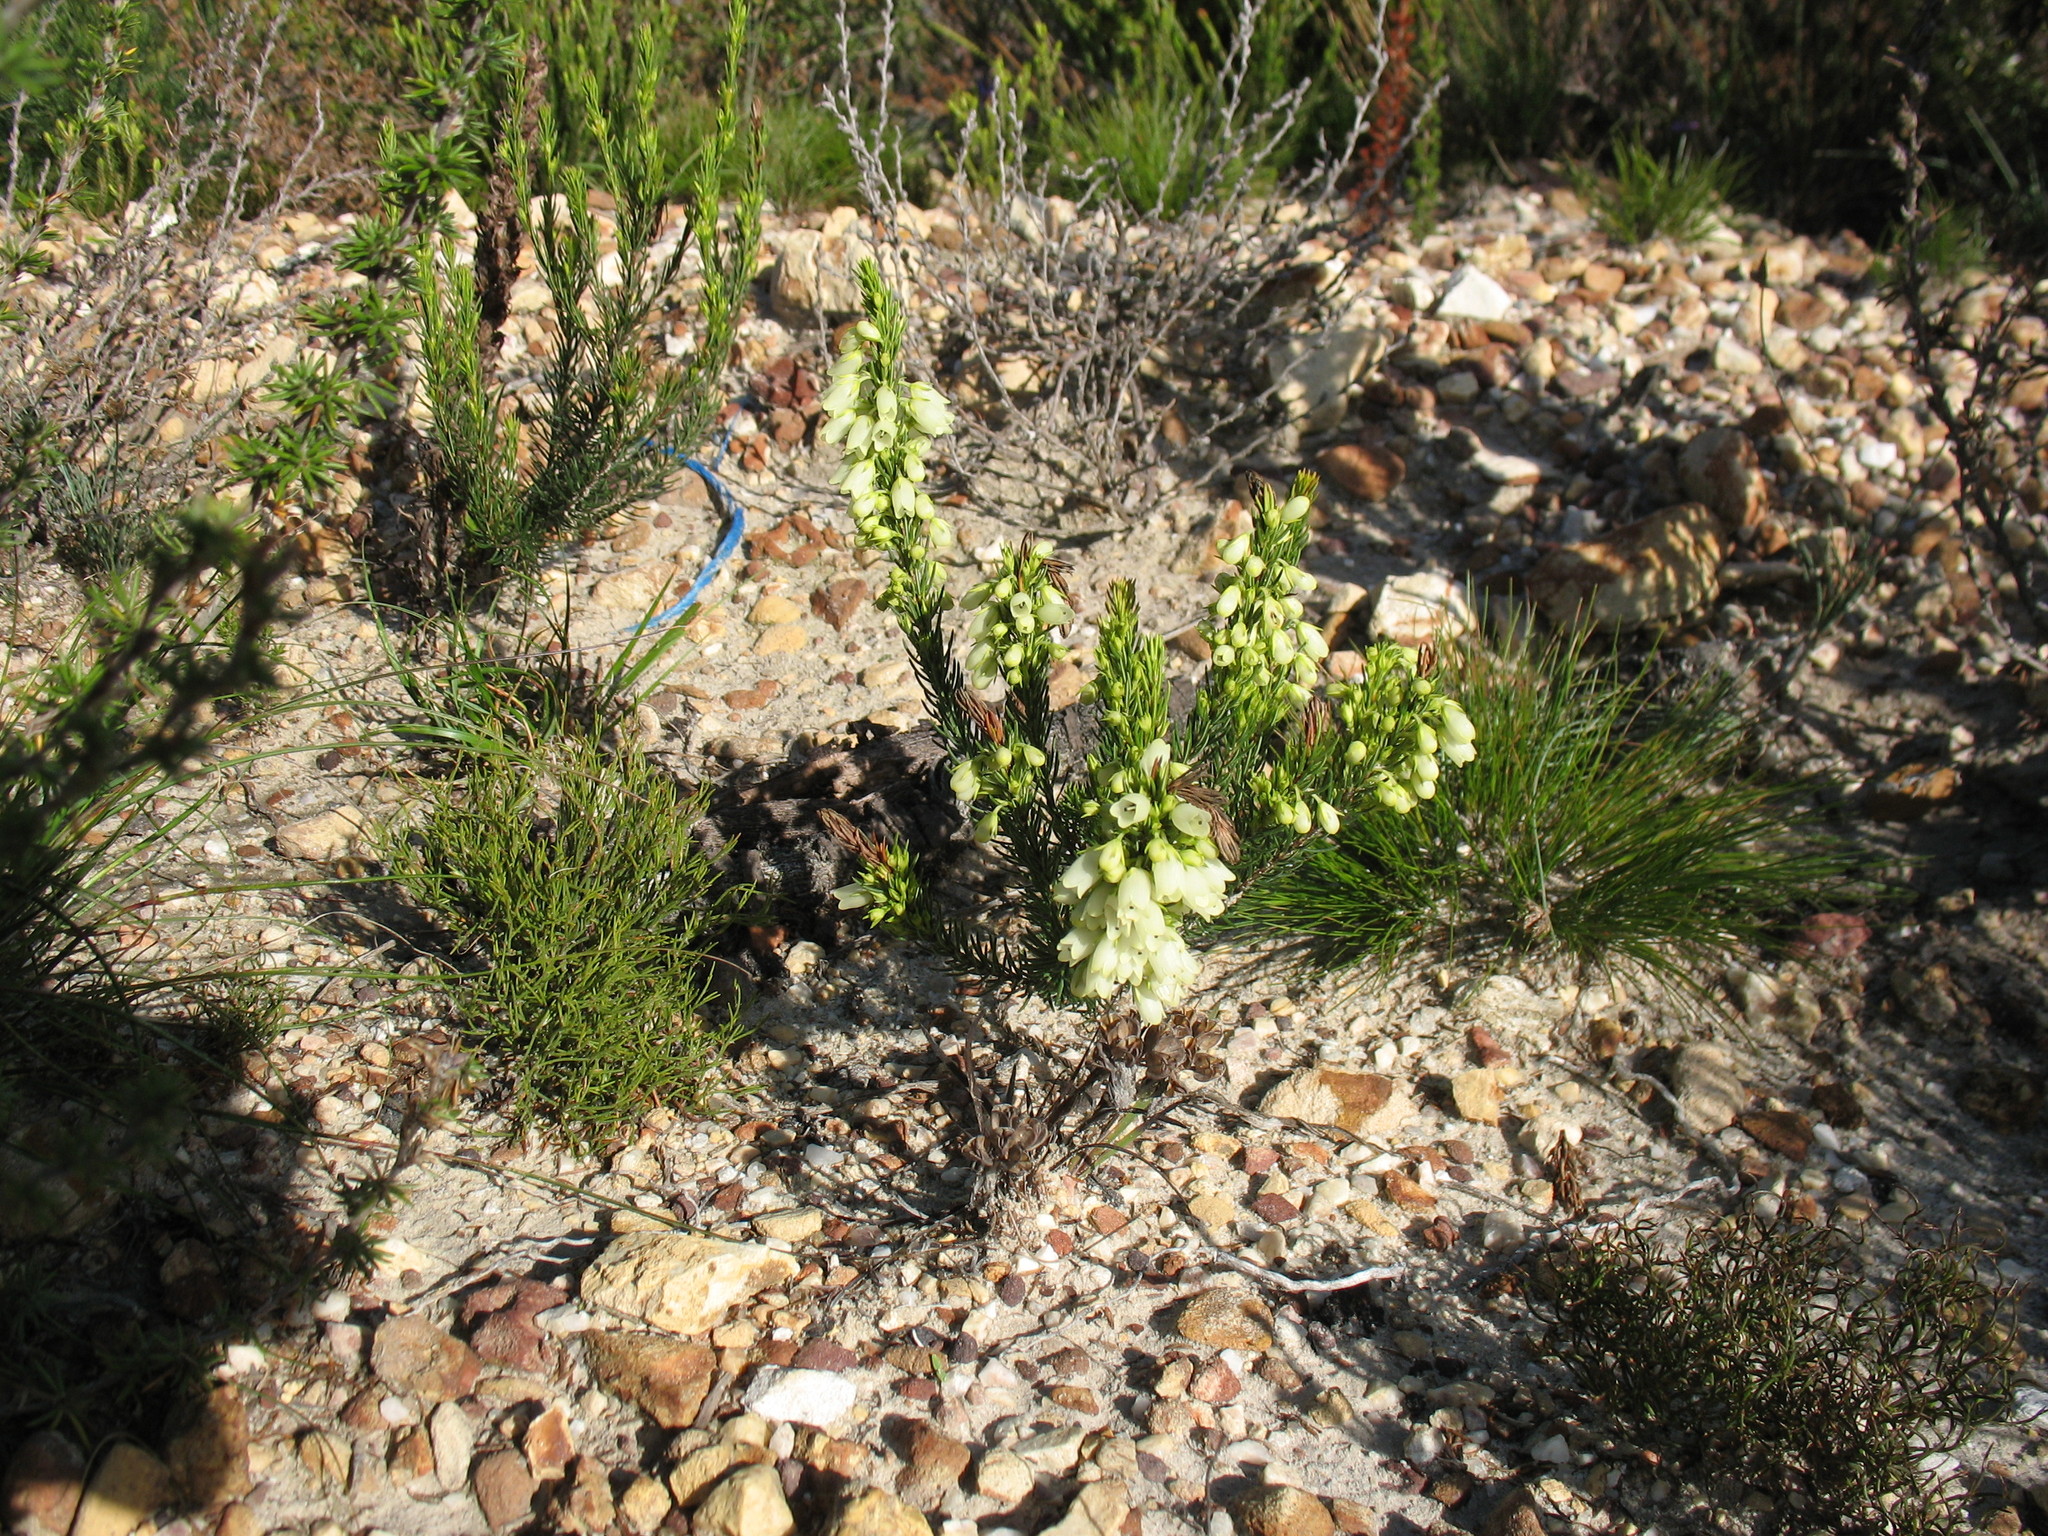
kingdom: Plantae
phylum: Tracheophyta
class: Magnoliopsida
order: Ericales
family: Ericaceae
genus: Erica
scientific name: Erica filipendula
